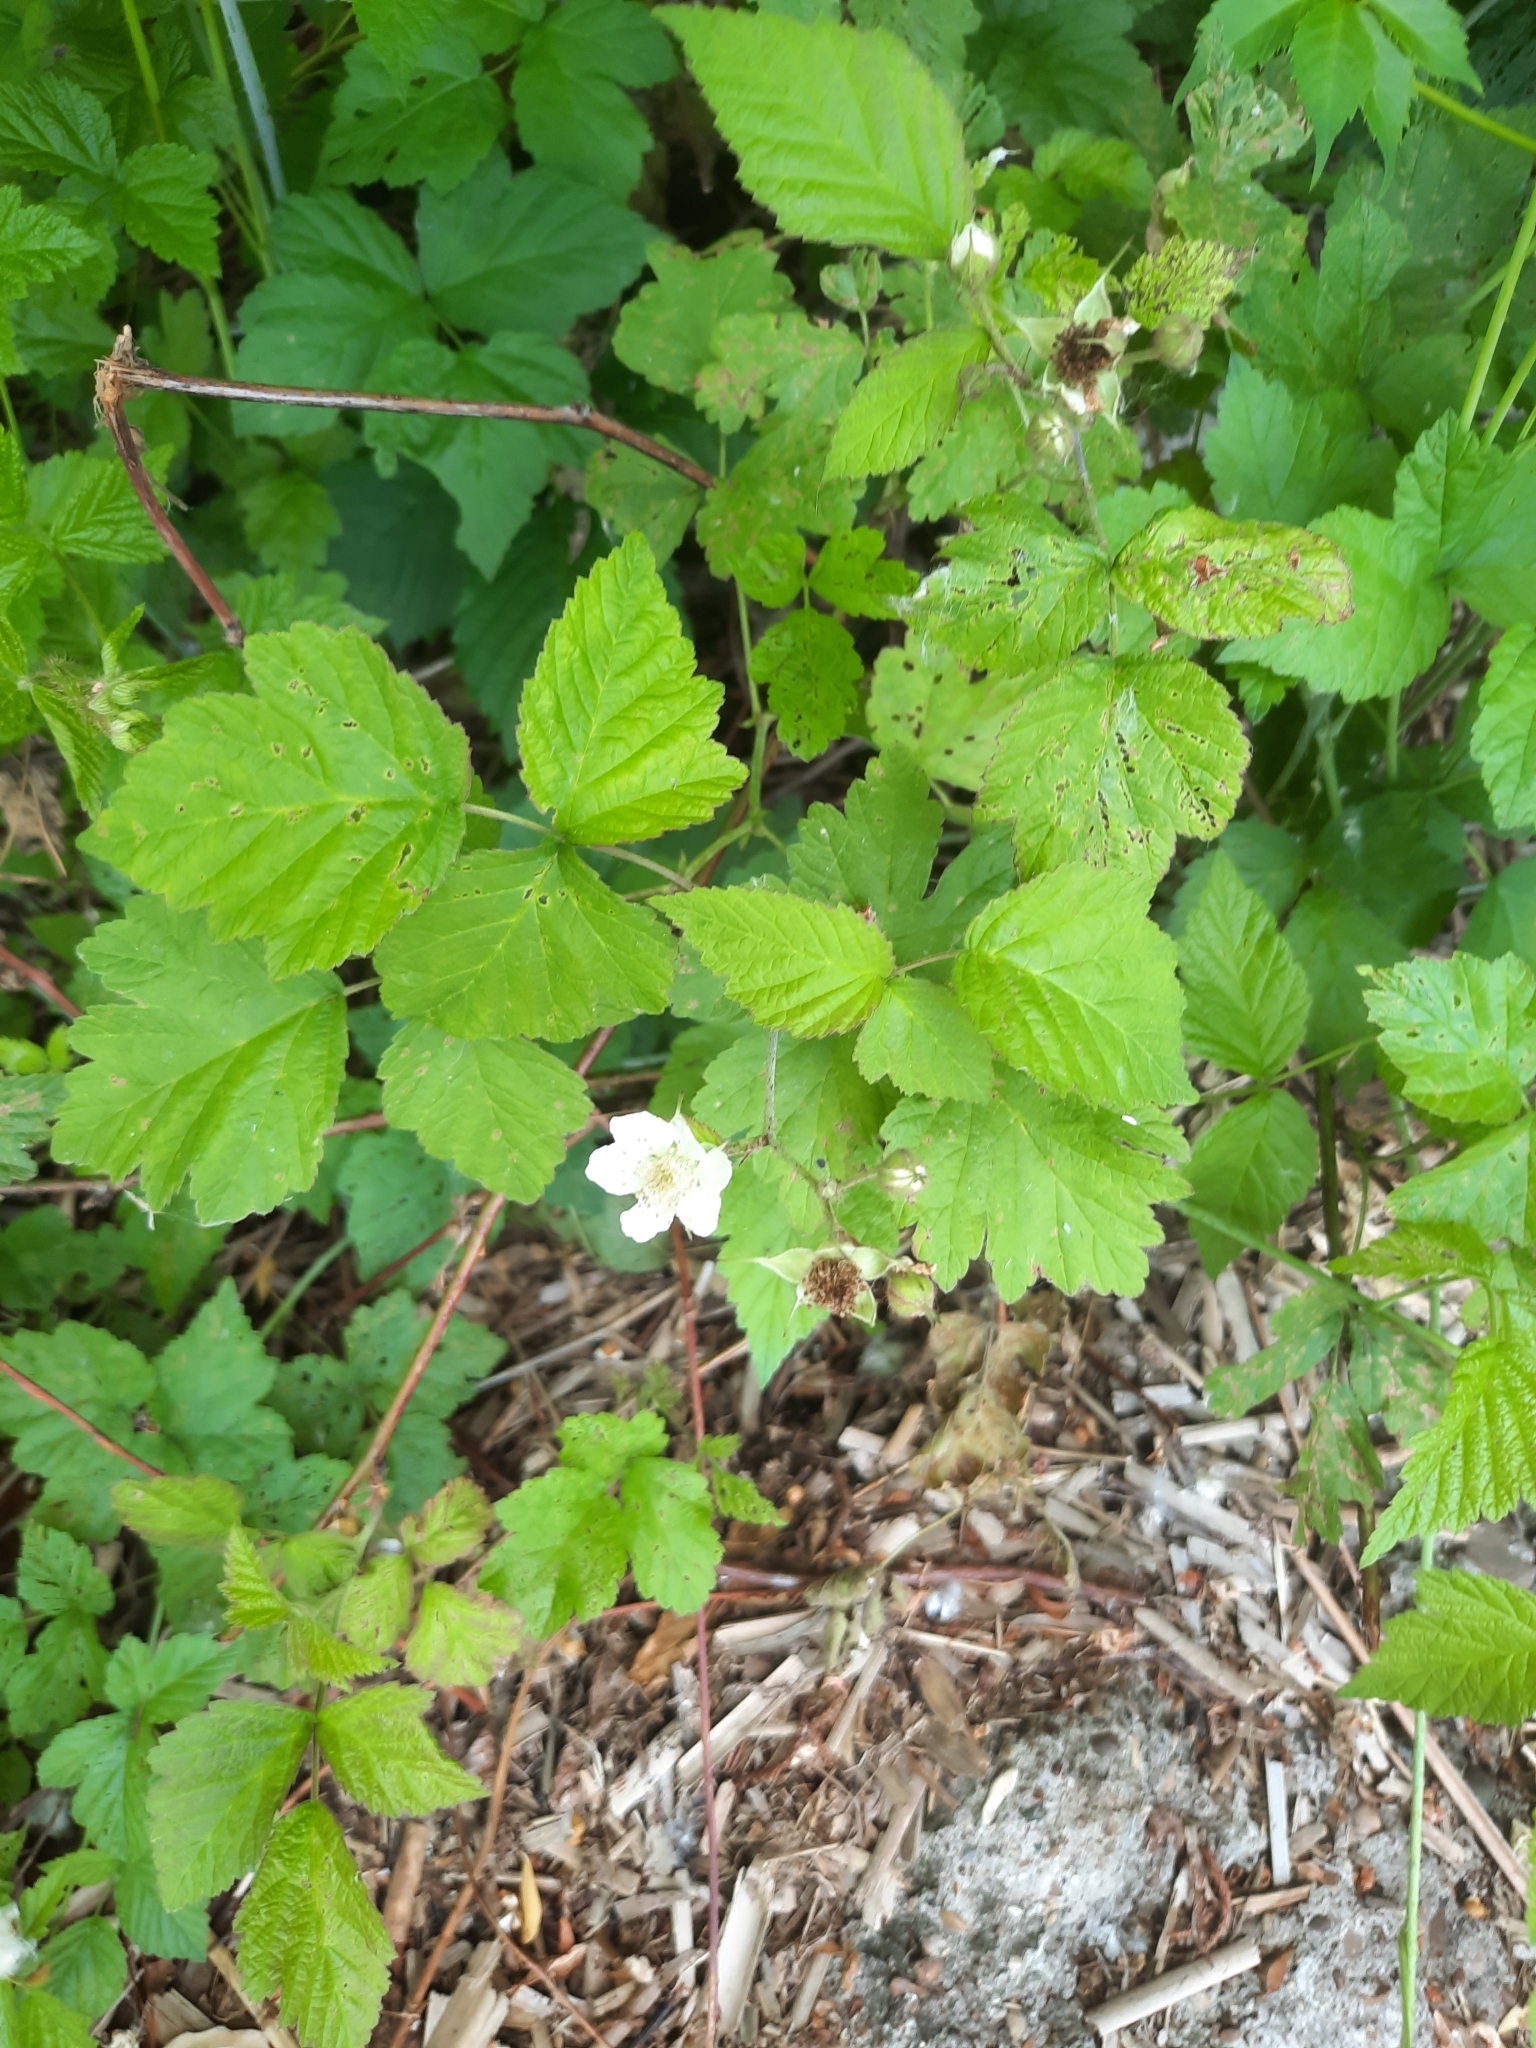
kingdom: Plantae
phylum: Tracheophyta
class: Magnoliopsida
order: Rosales
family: Rosaceae
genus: Rubus
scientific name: Rubus caesius
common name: Dewberry
